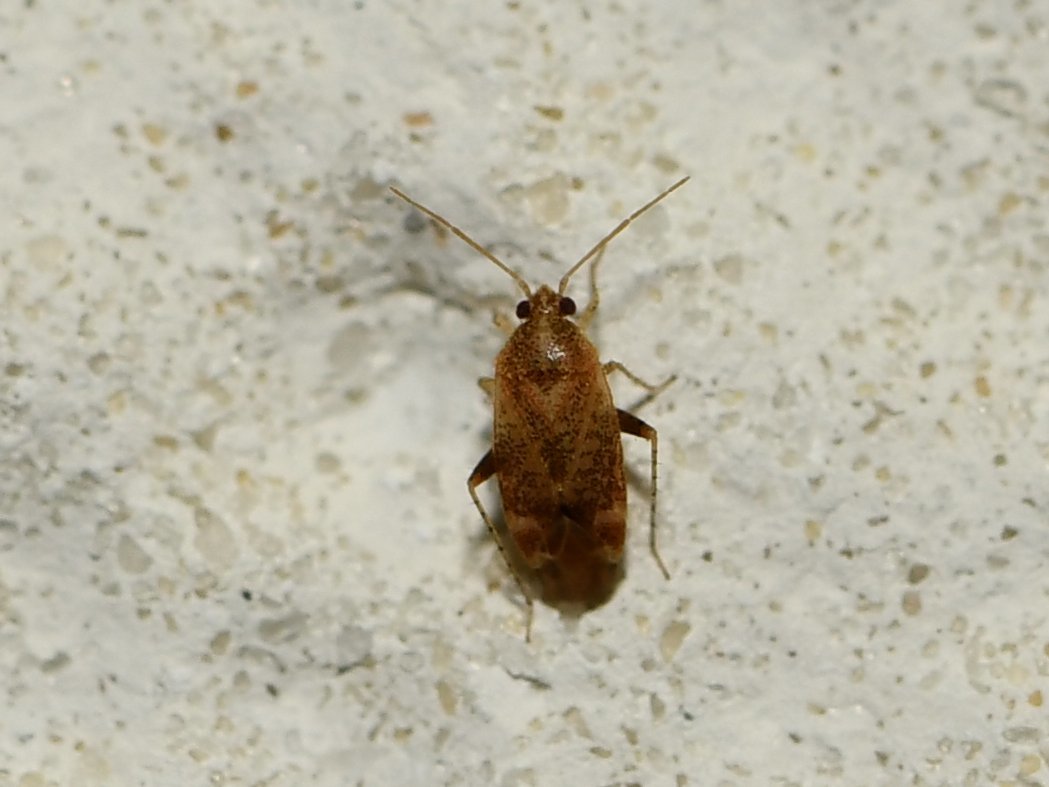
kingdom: Animalia
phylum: Arthropoda
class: Insecta
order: Hemiptera
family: Miridae
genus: Hamatophylus
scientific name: Hamatophylus guttulosus
